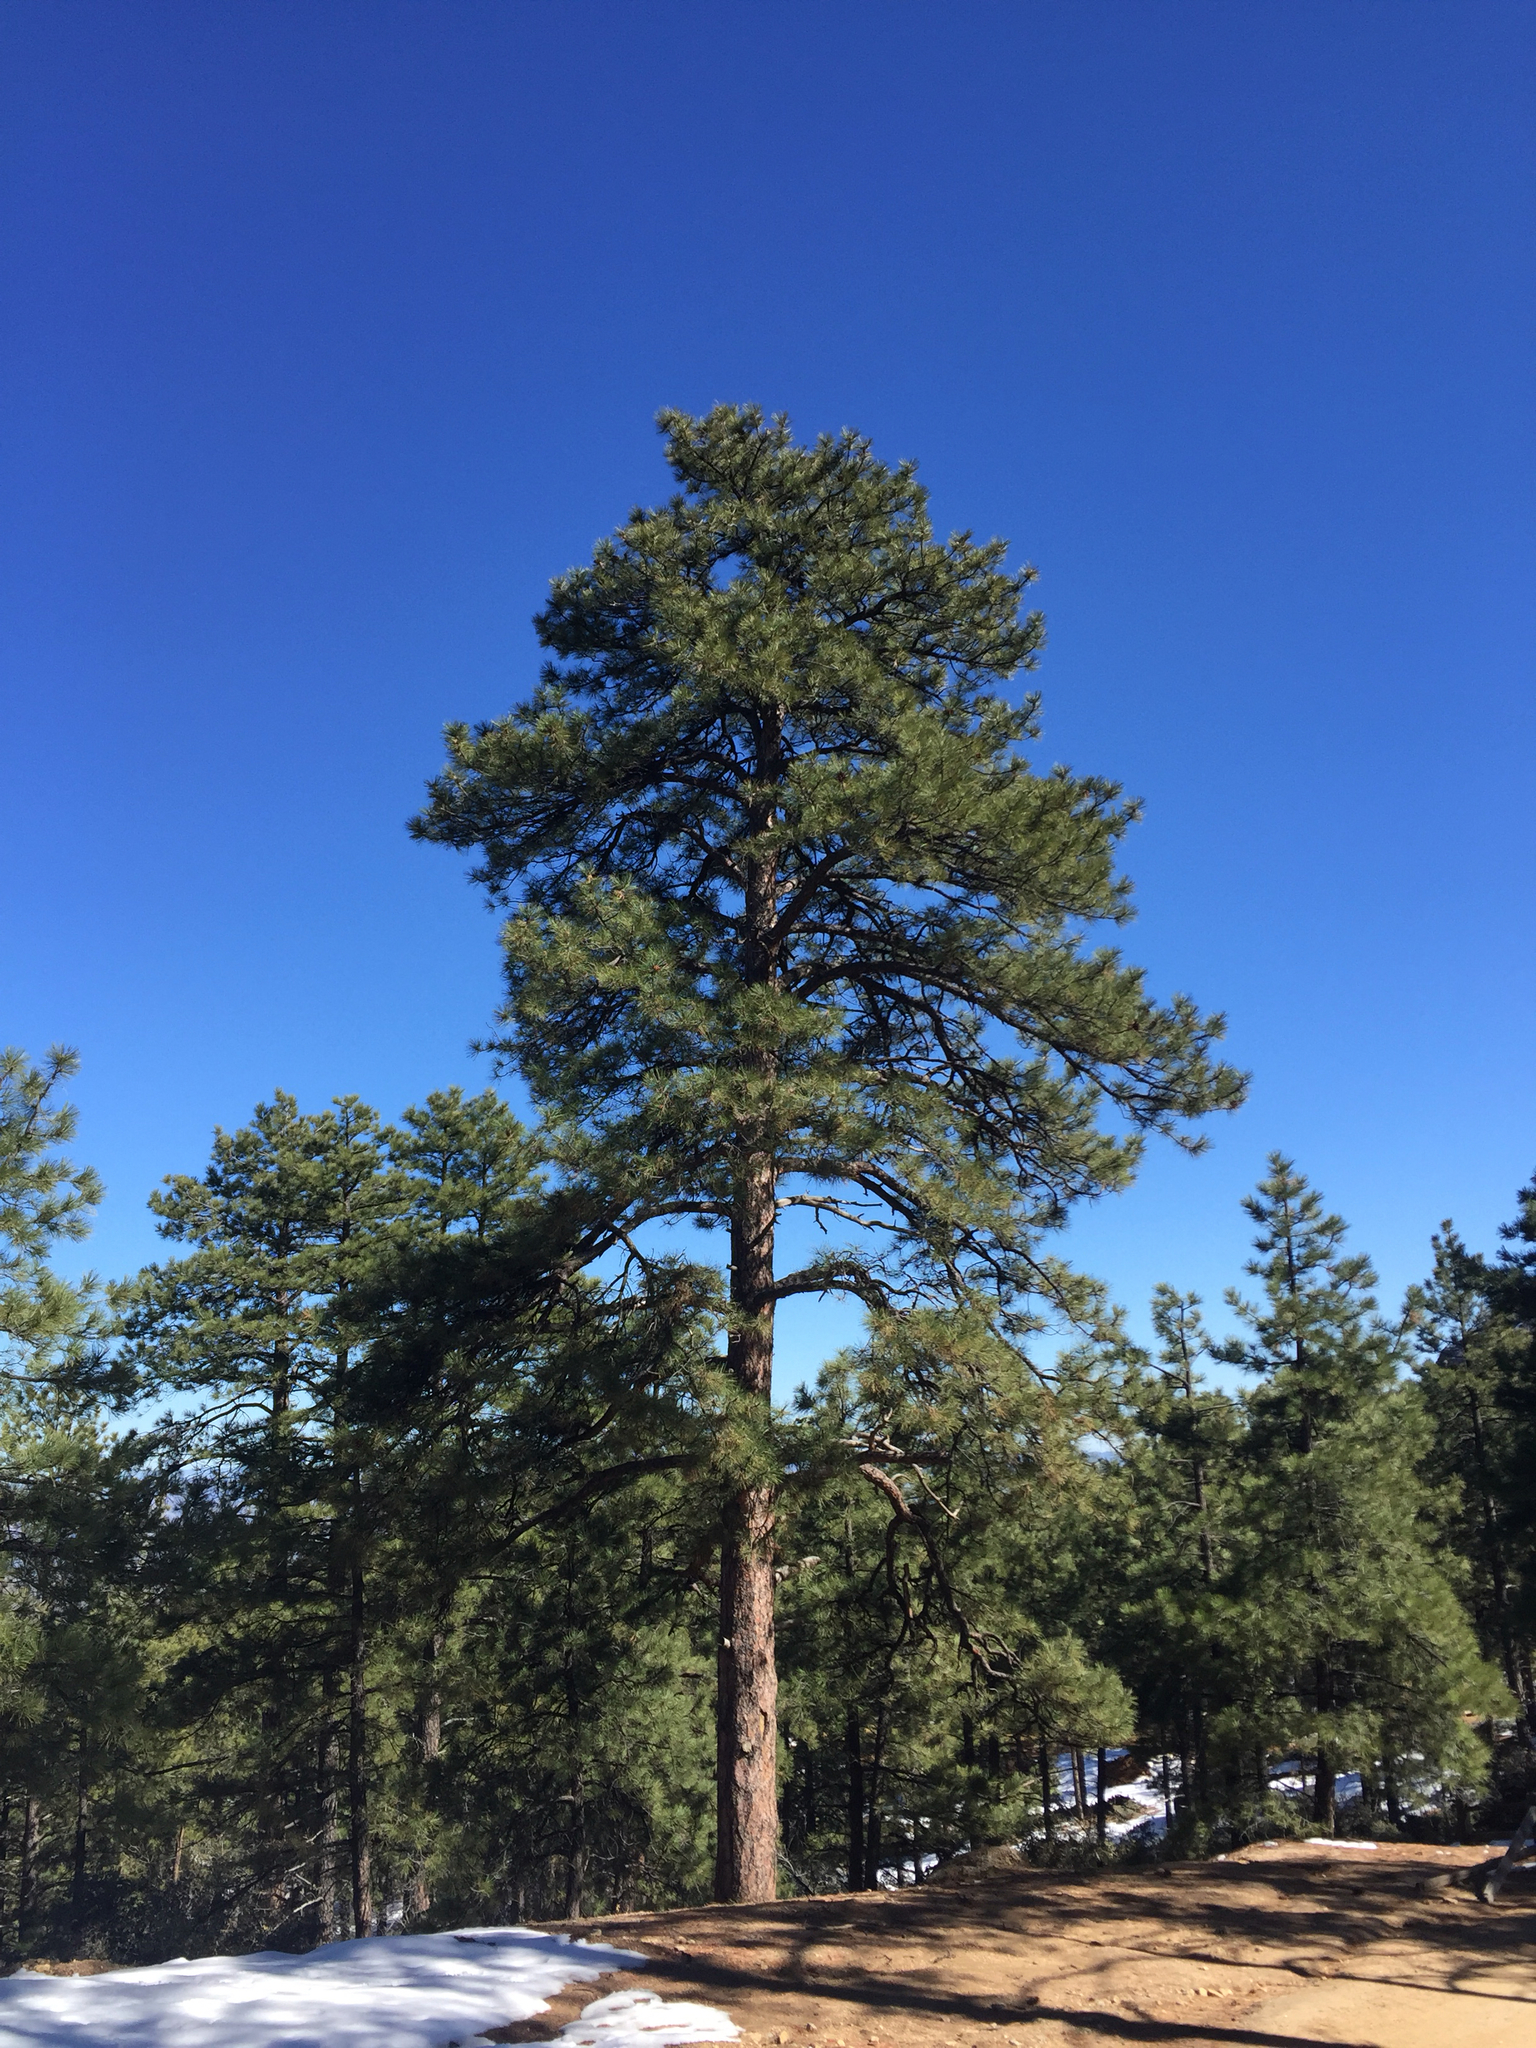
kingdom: Plantae
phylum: Tracheophyta
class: Pinopsida
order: Pinales
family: Pinaceae
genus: Pinus
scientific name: Pinus ponderosa
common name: Western yellow-pine
